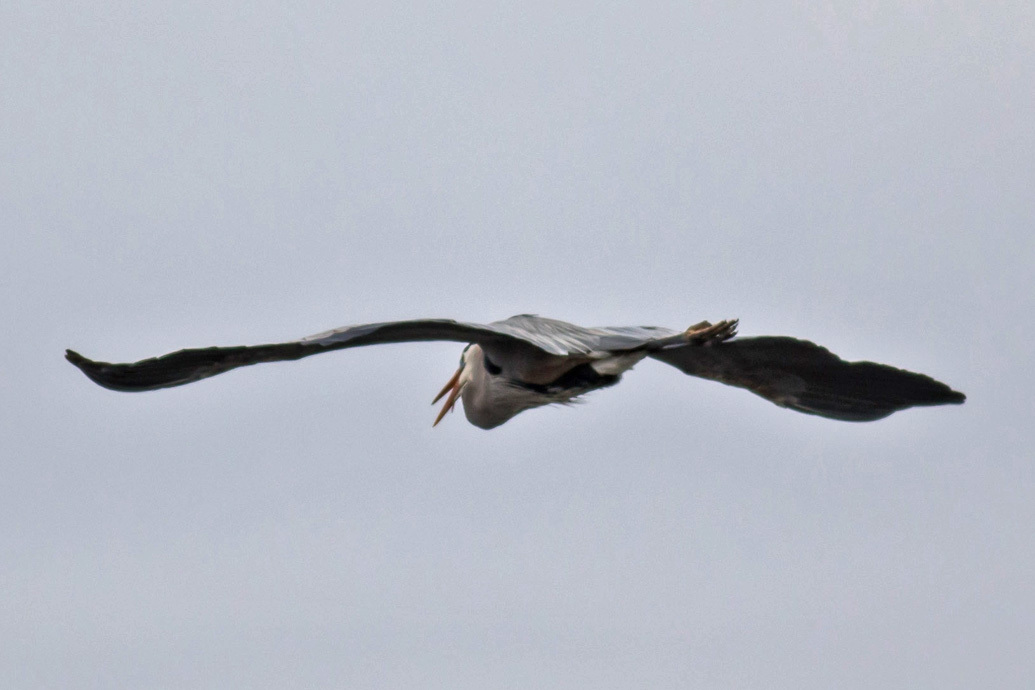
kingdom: Animalia
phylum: Chordata
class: Aves
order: Pelecaniformes
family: Ardeidae
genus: Ardea
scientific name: Ardea herodias
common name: Great blue heron
